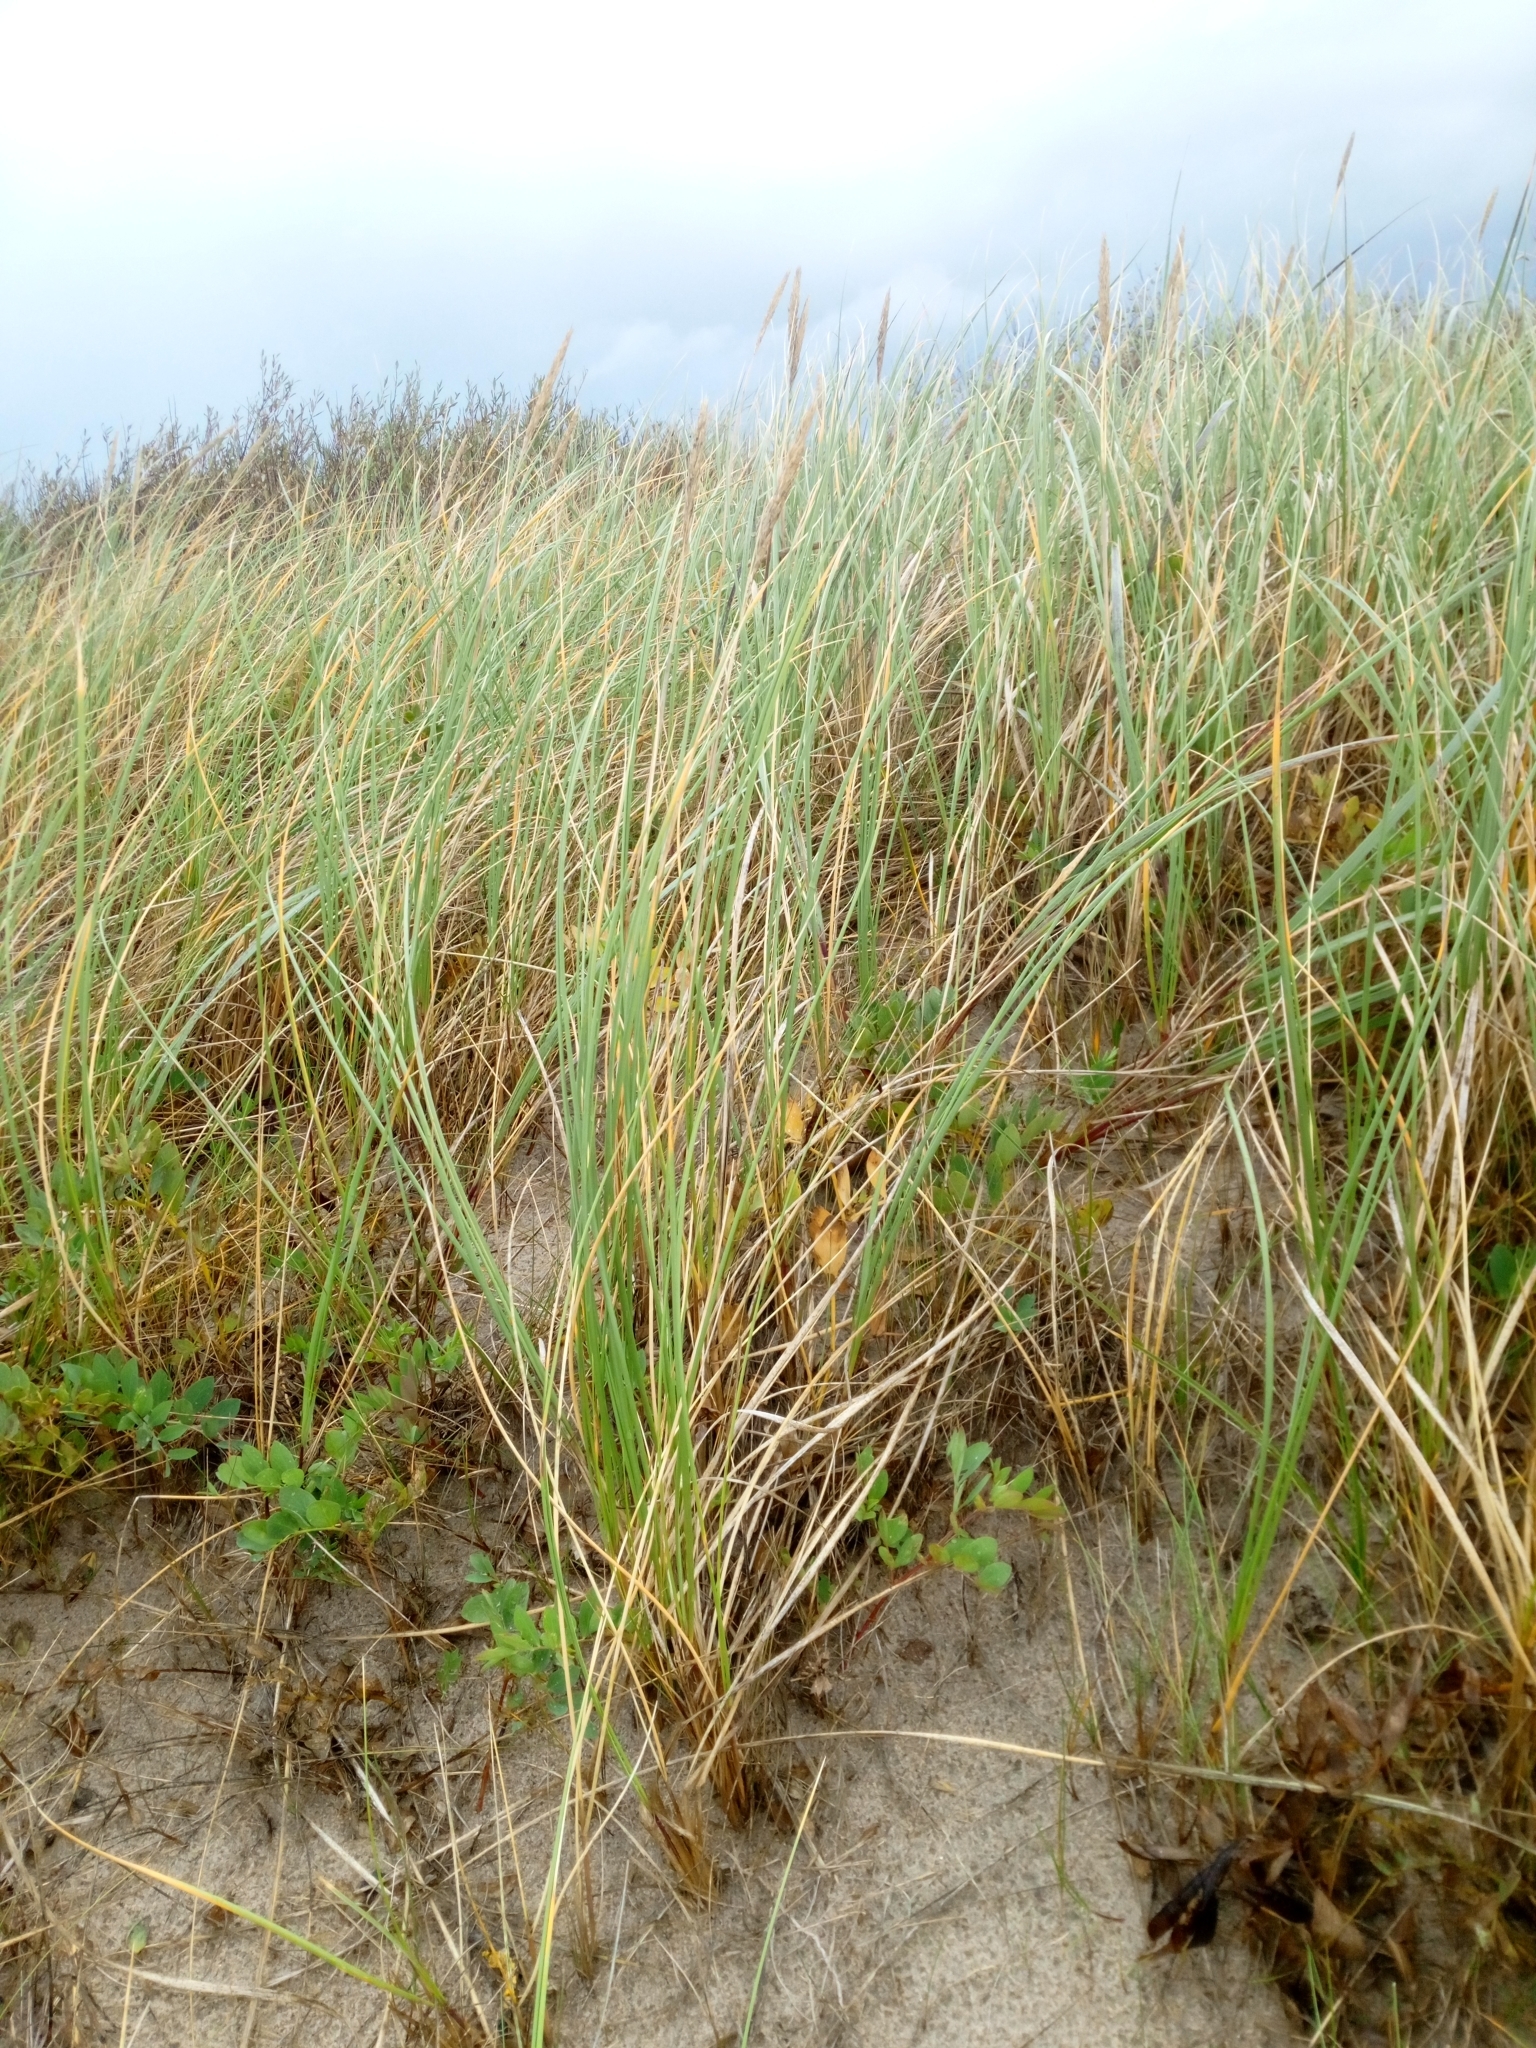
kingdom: Plantae
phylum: Tracheophyta
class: Liliopsida
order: Poales
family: Poaceae
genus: Calamagrostis
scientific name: Calamagrostis arenaria
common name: European beachgrass
